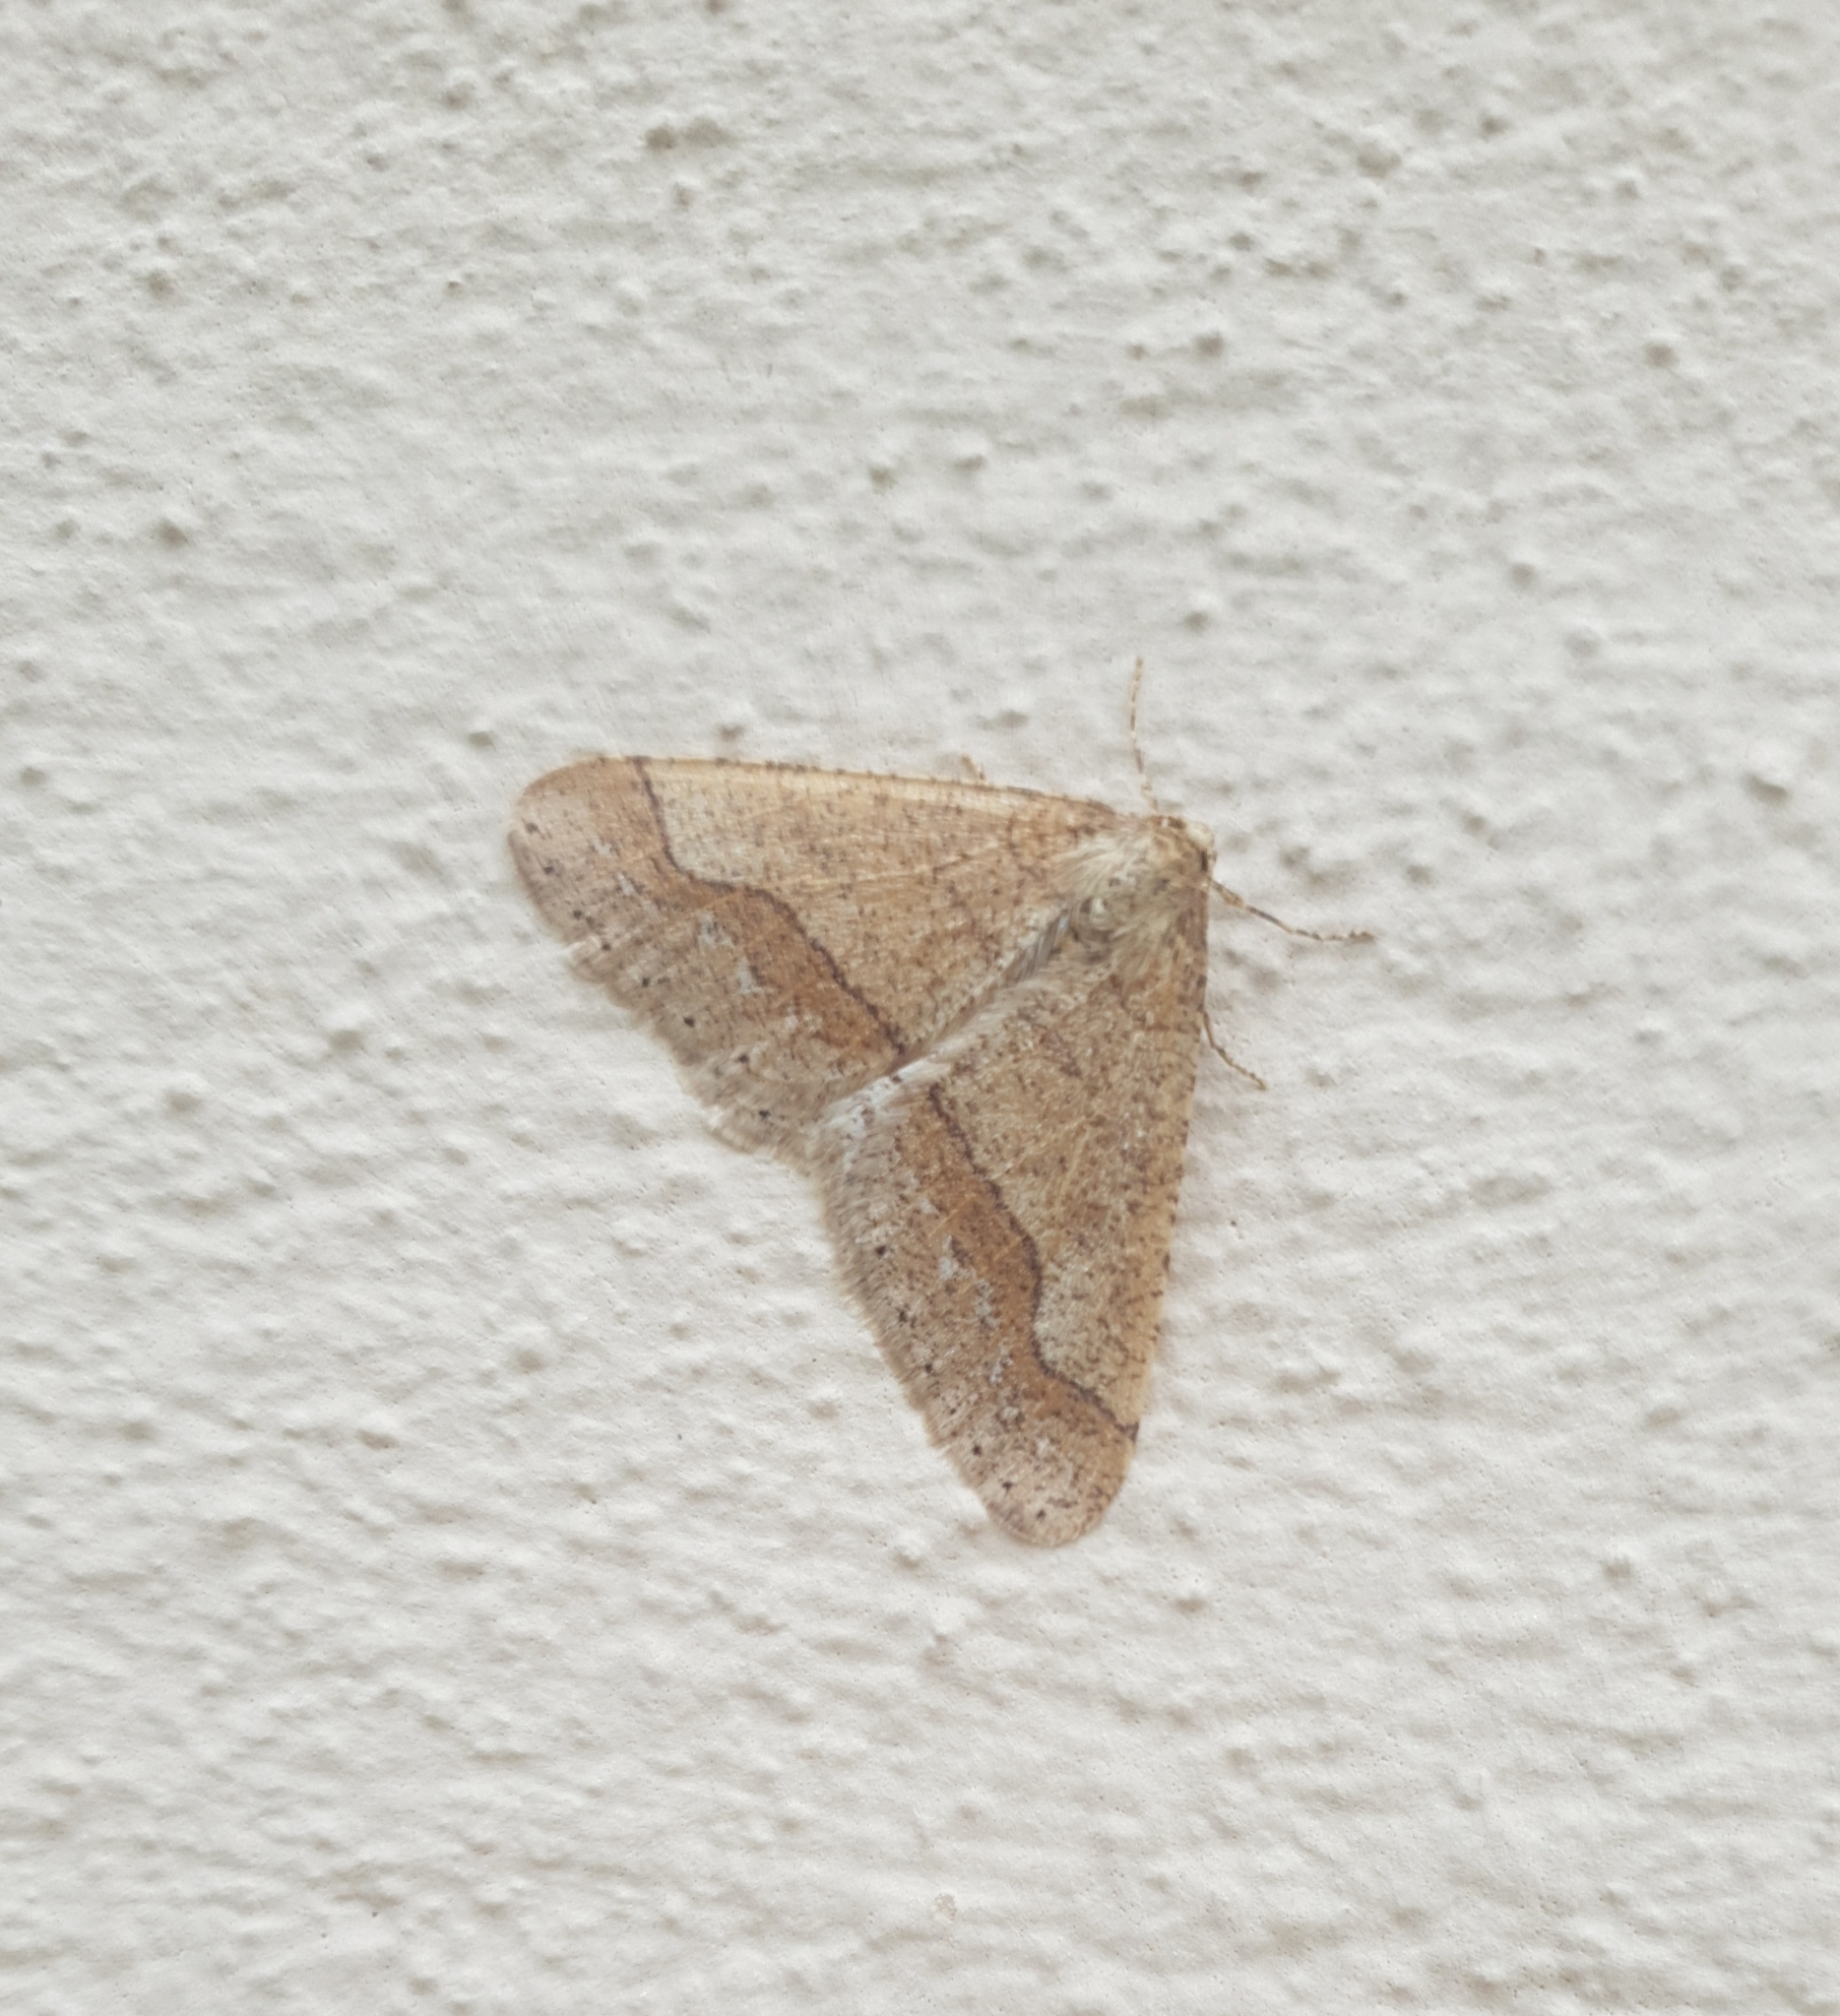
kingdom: Animalia
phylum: Arthropoda
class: Insecta
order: Lepidoptera
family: Geometridae
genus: Agriopis
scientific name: Agriopis marginaria
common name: Dotted border
